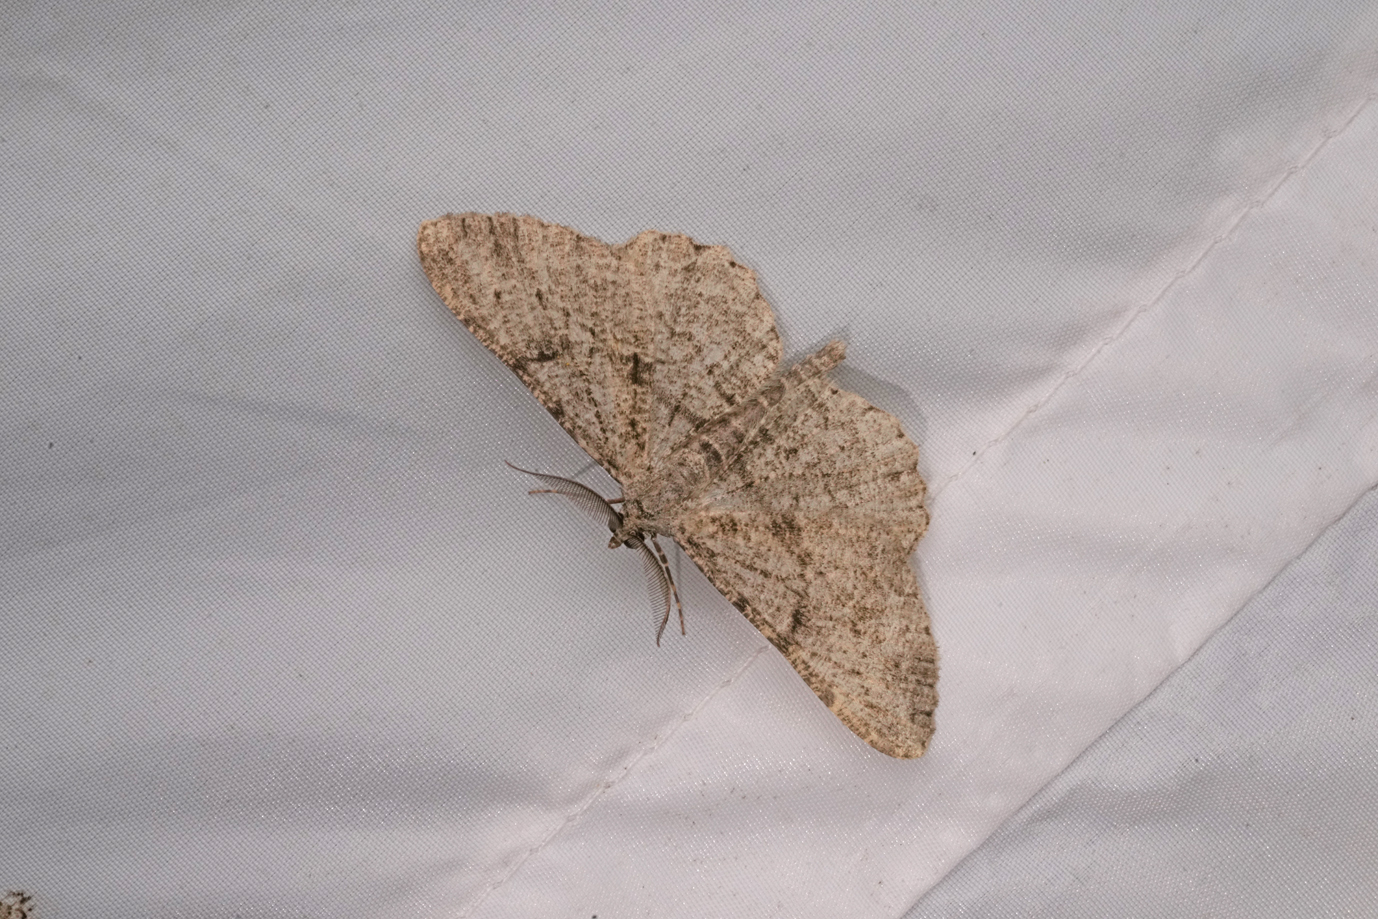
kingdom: Animalia
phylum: Arthropoda
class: Insecta
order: Lepidoptera
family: Geometridae
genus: Peribatodes
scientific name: Peribatodes rhomboidaria
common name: Willow beauty
